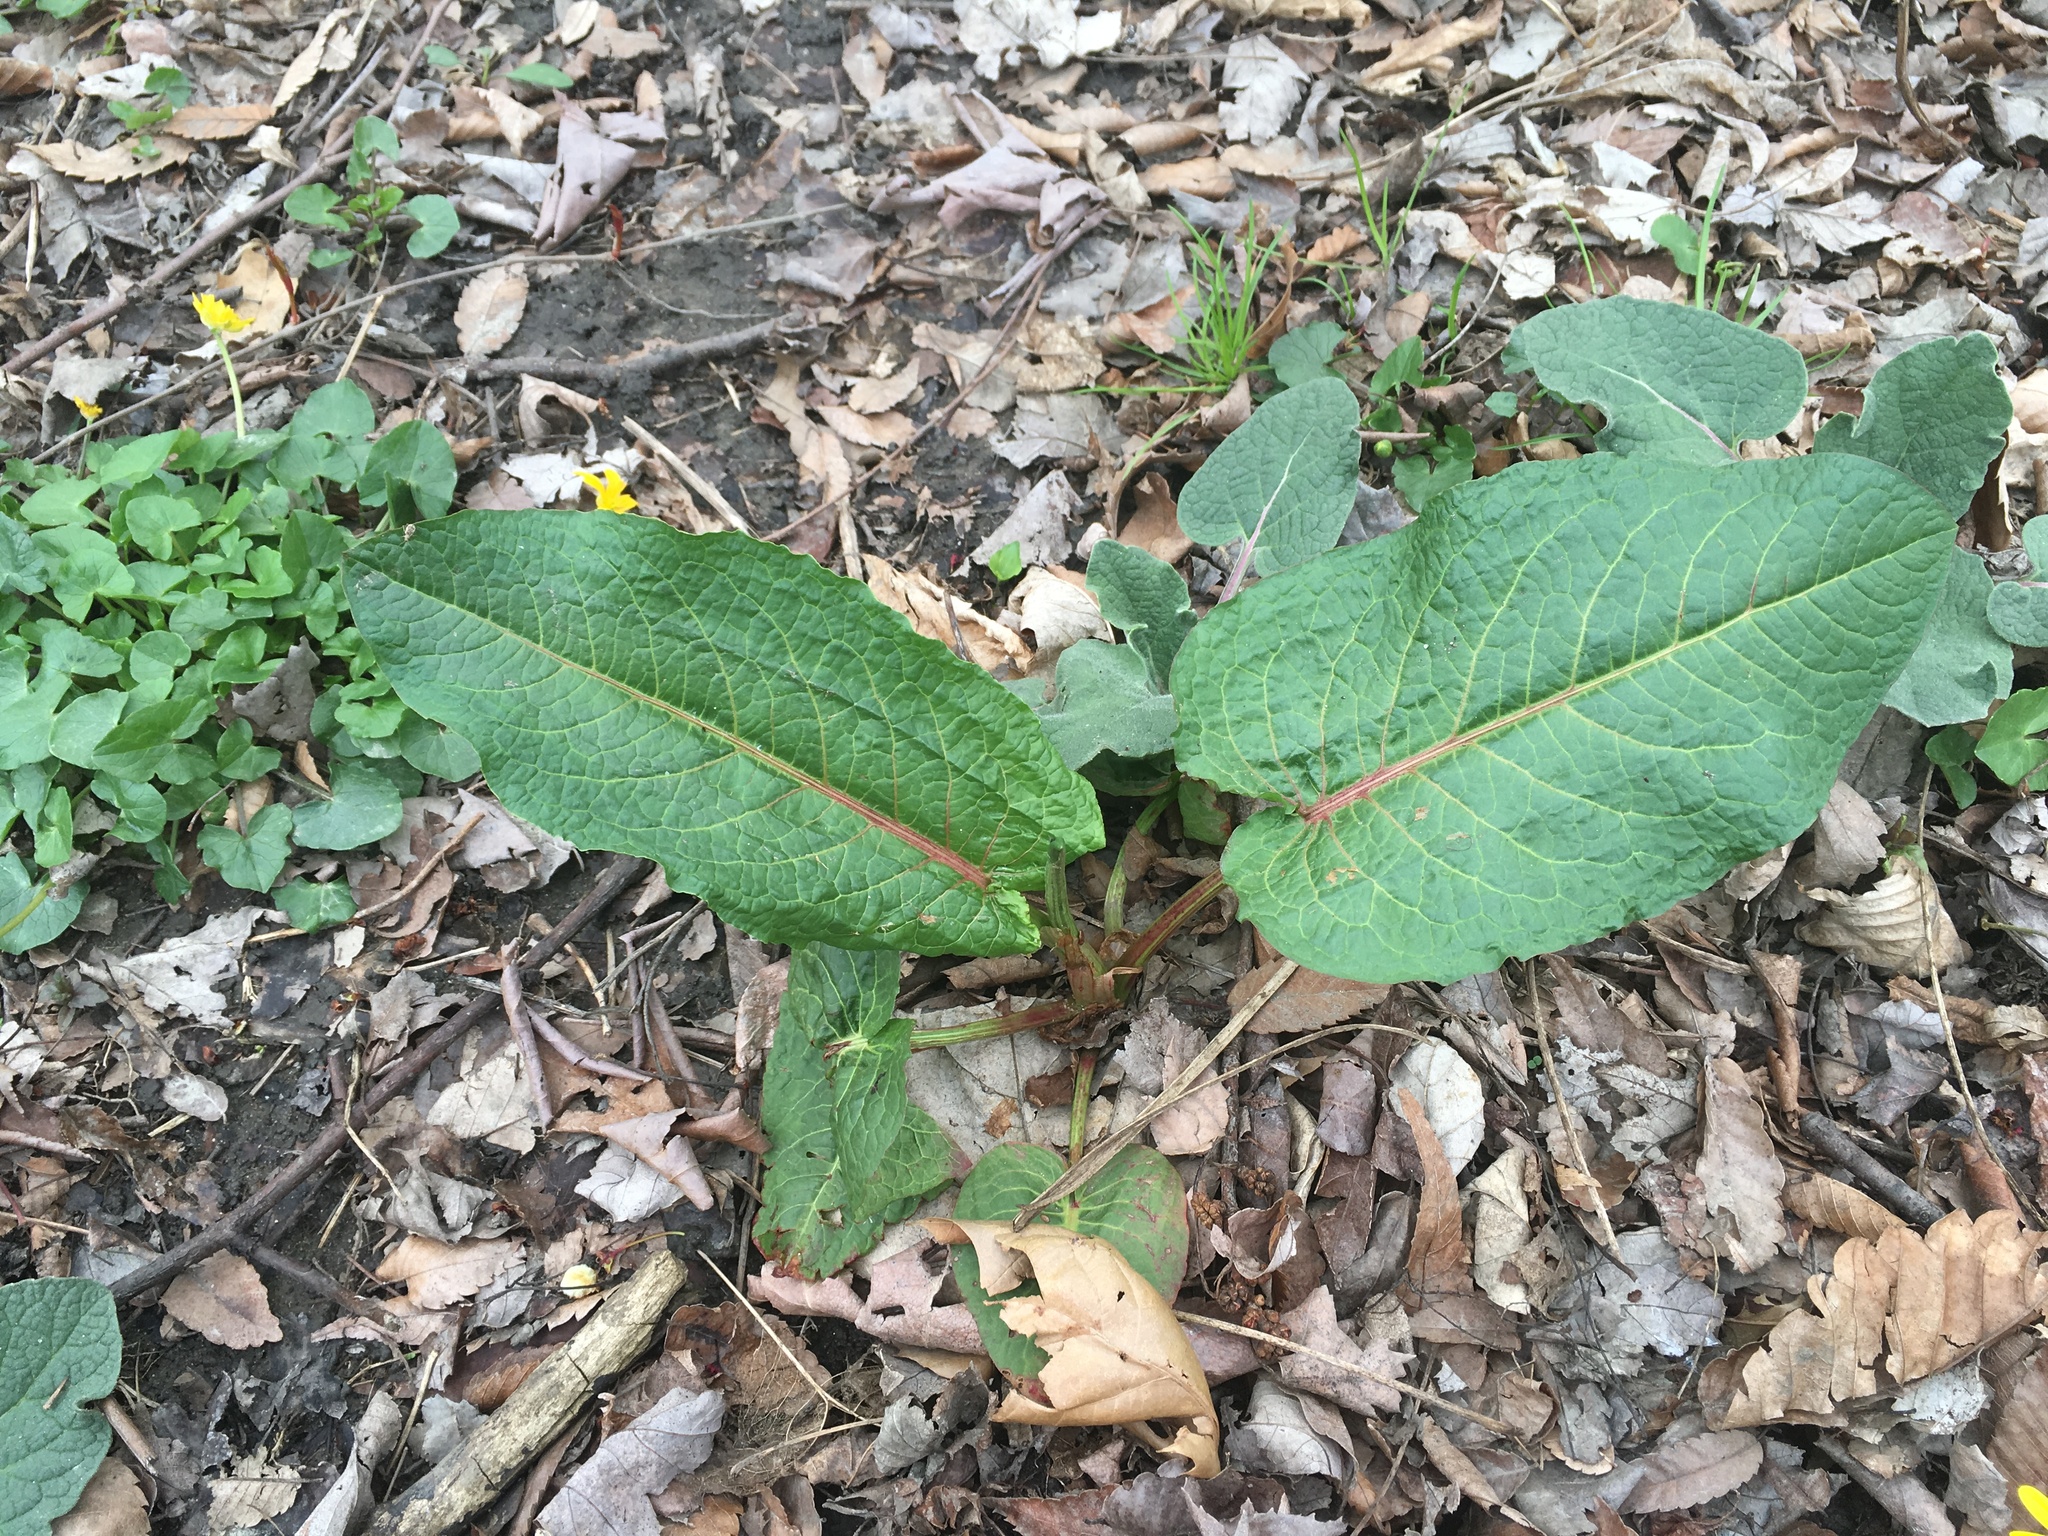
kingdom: Plantae
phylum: Tracheophyta
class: Magnoliopsida
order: Caryophyllales
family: Polygonaceae
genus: Rumex
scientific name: Rumex obtusifolius
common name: Bitter dock
